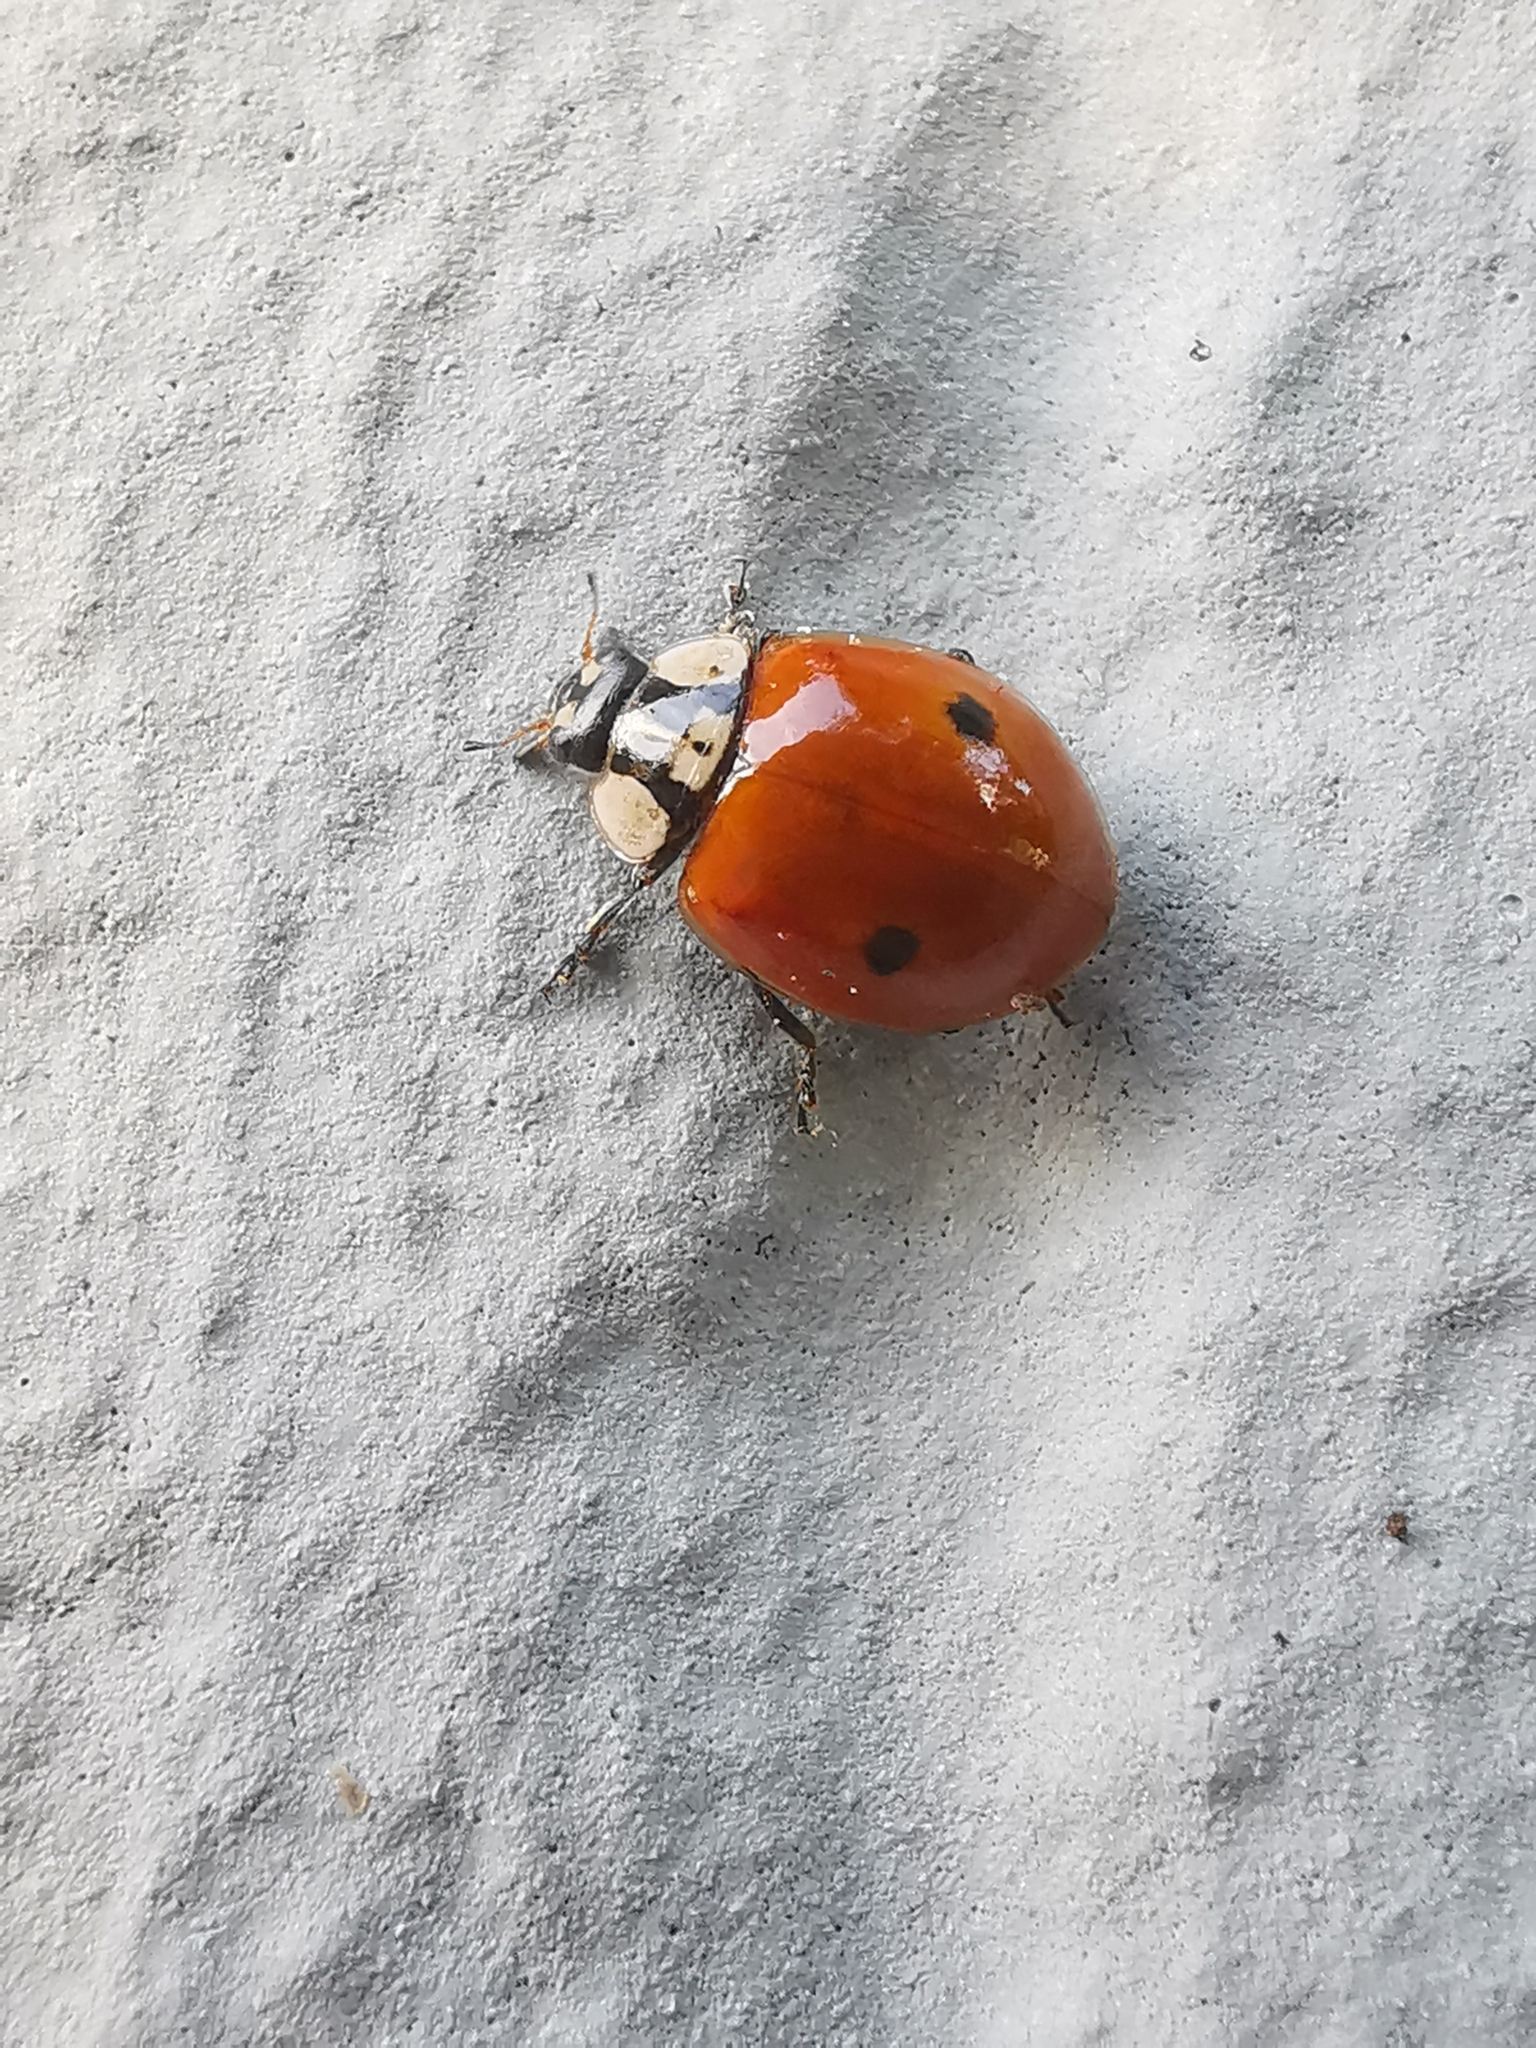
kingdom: Animalia
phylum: Arthropoda
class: Insecta
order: Coleoptera
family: Coccinellidae
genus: Adalia
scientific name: Adalia bipunctata
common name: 2-spot ladybird
